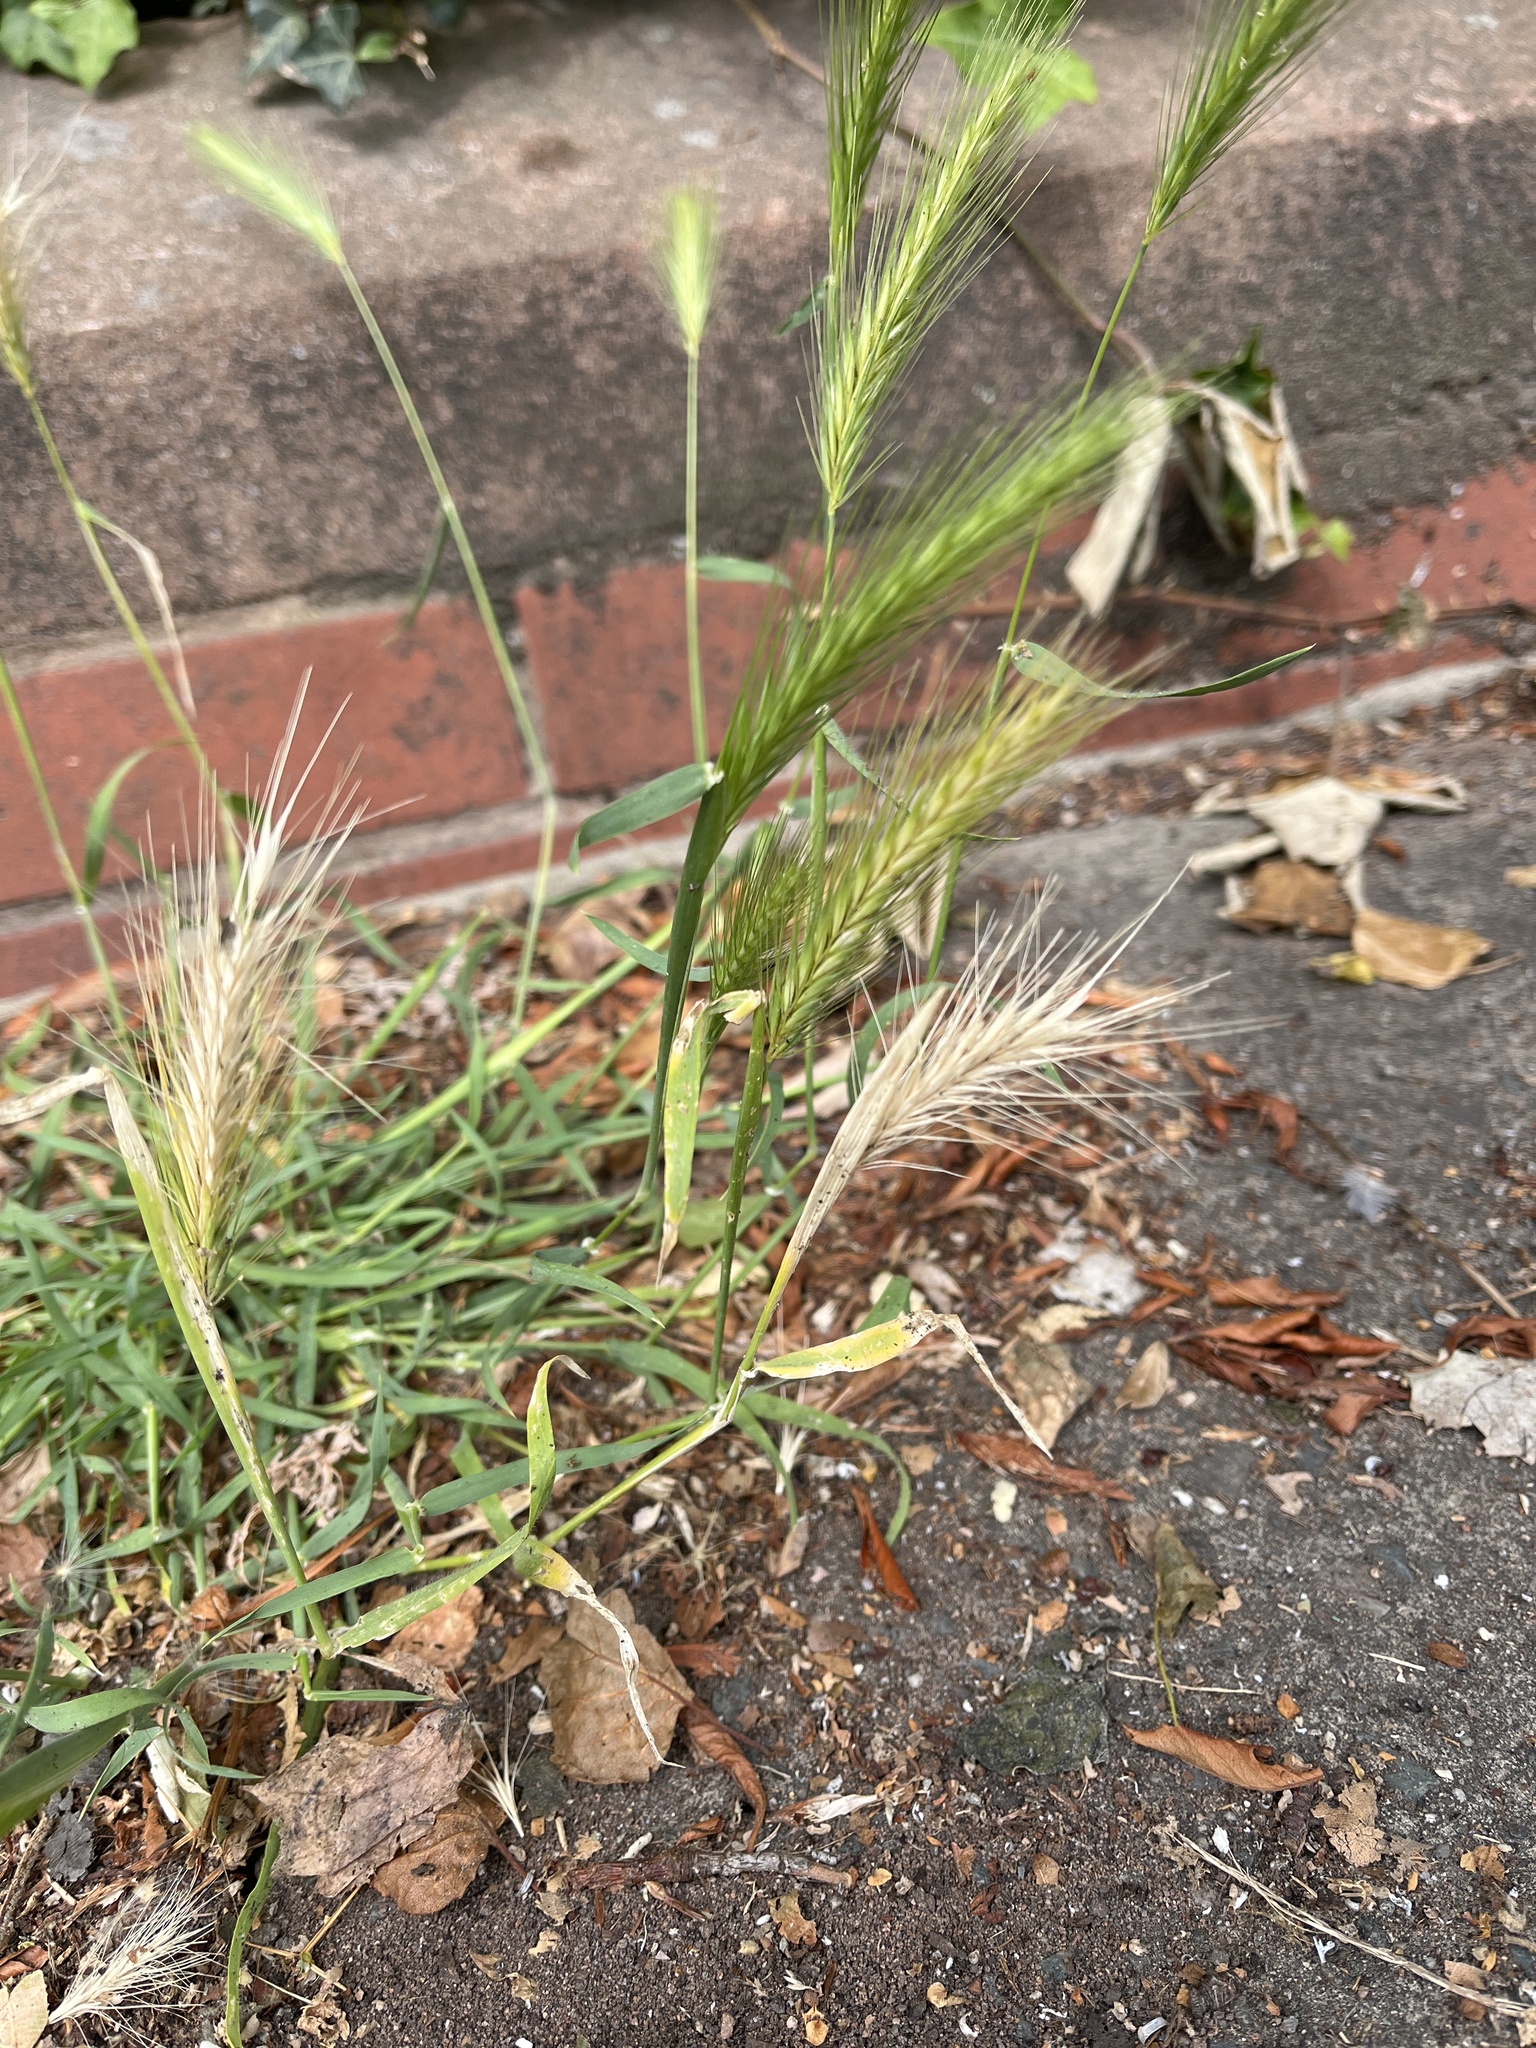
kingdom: Plantae
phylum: Tracheophyta
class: Liliopsida
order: Poales
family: Poaceae
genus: Hordeum
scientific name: Hordeum murinum
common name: Wall barley
